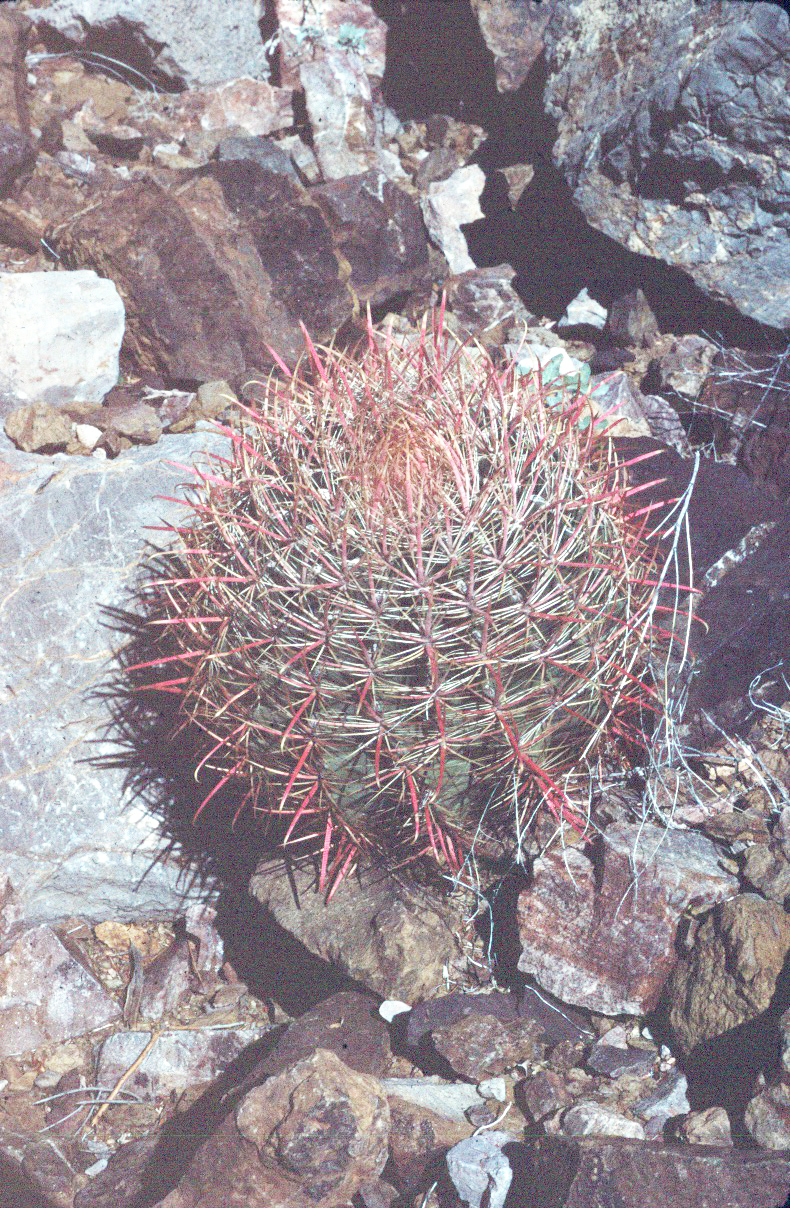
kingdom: Plantae
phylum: Tracheophyta
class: Magnoliopsida
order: Caryophyllales
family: Cactaceae
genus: Ferocactus
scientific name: Ferocactus cylindraceus
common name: California barrel cactus
